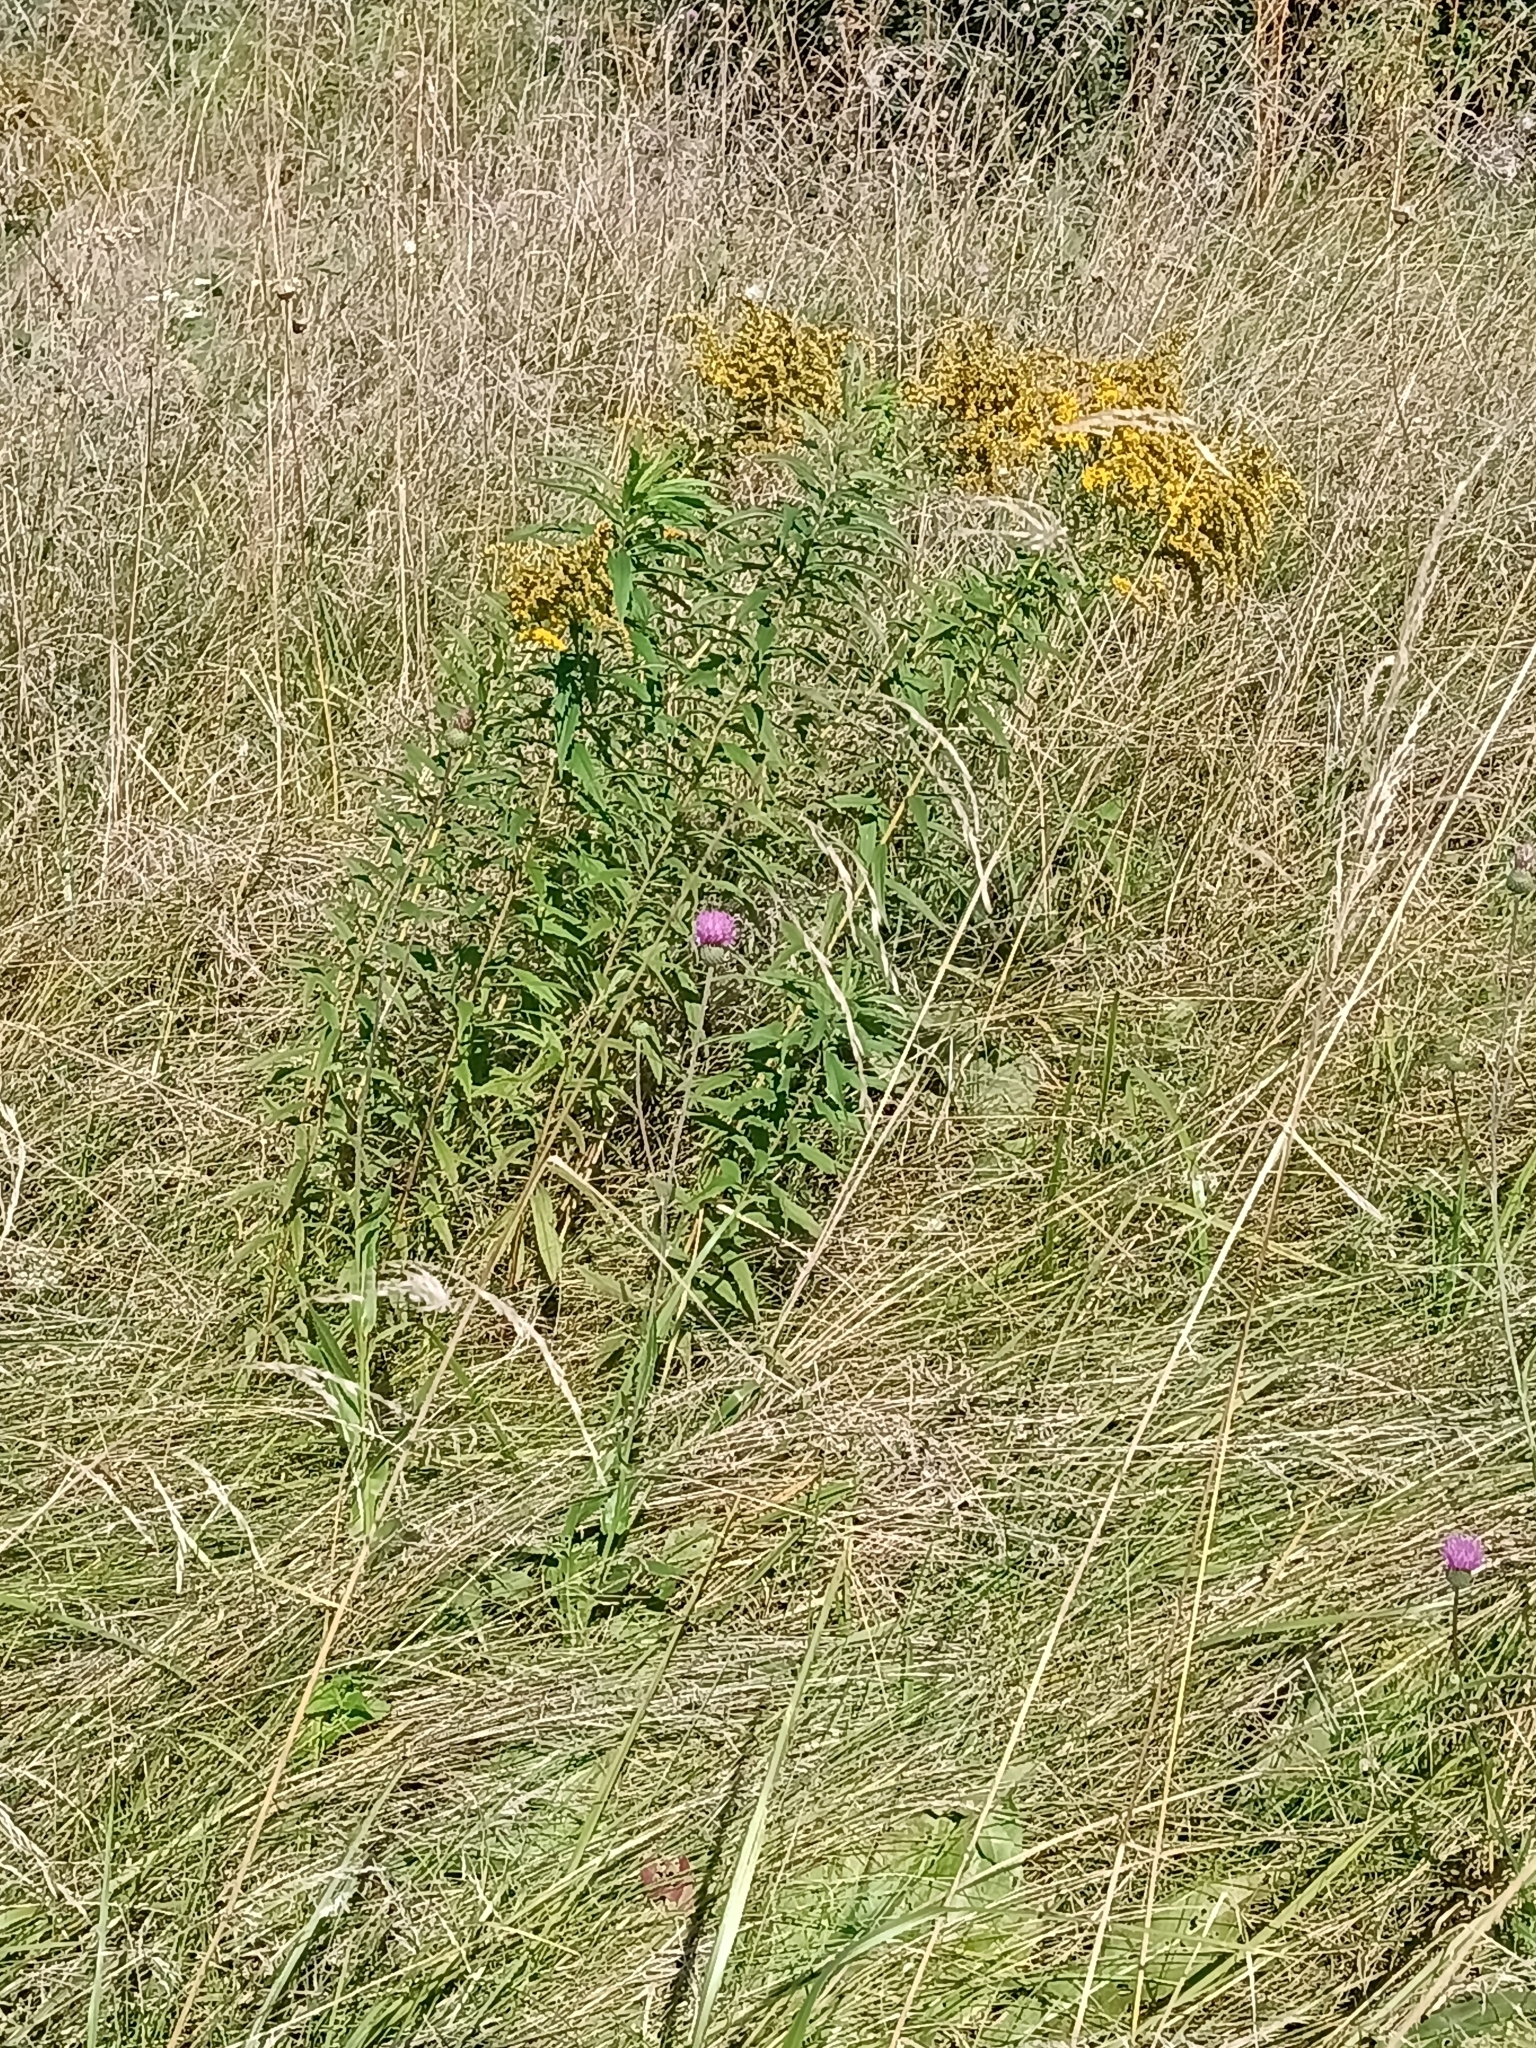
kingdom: Plantae
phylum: Tracheophyta
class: Magnoliopsida
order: Asterales
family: Asteraceae
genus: Solidago
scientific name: Solidago canadensis
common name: Canada goldenrod
